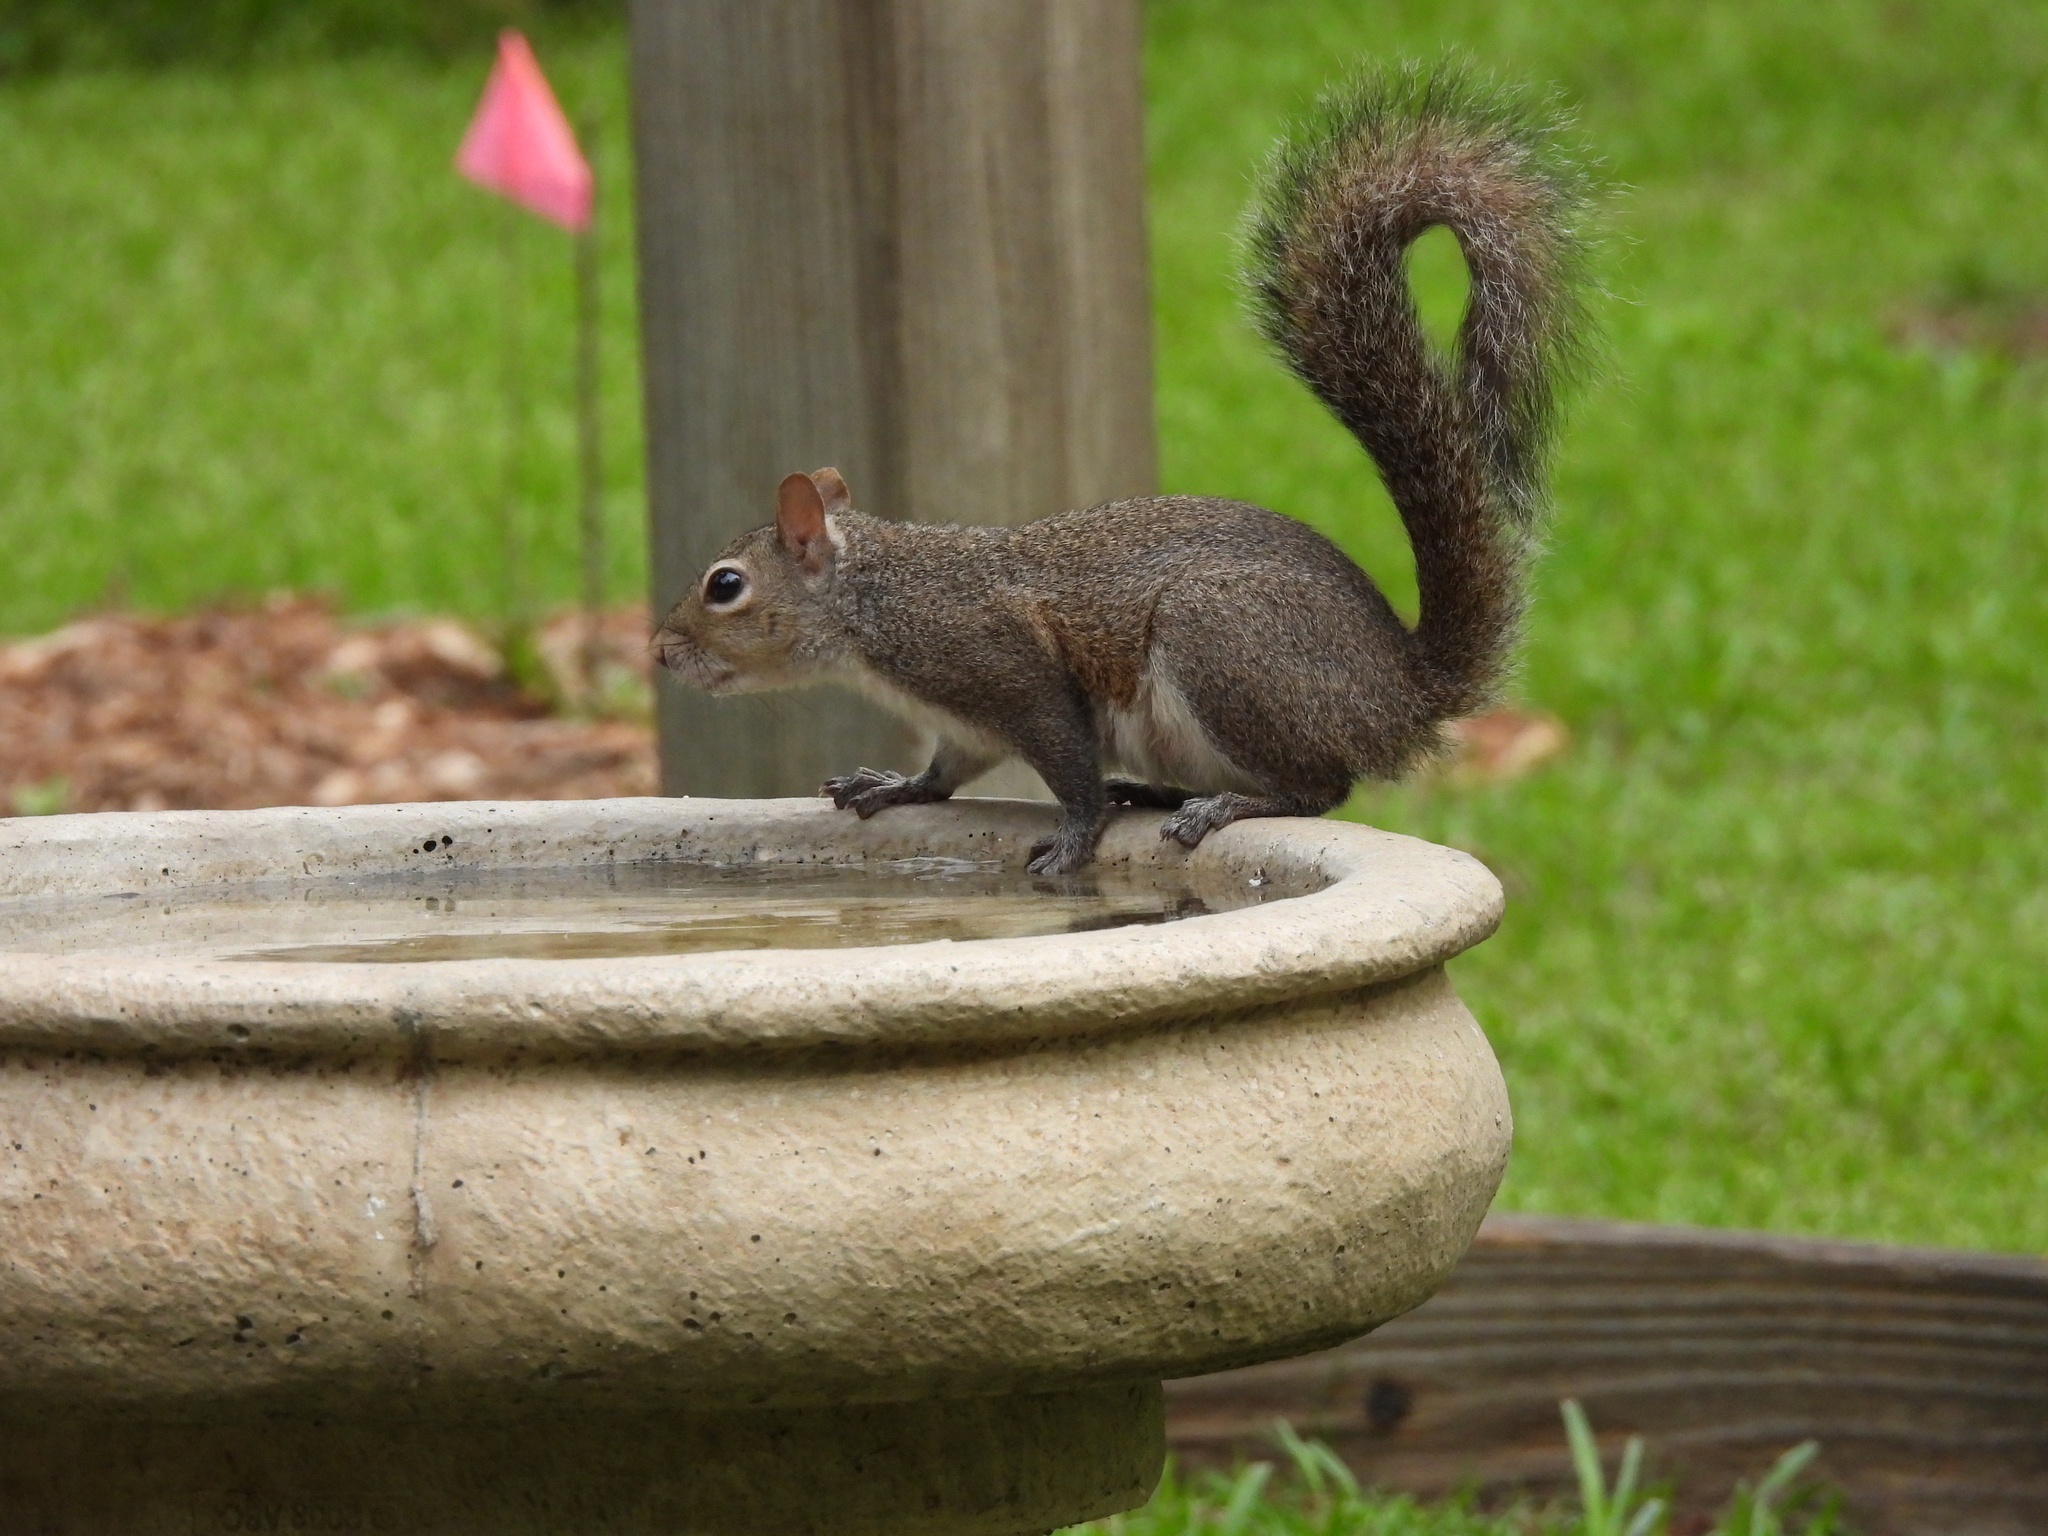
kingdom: Animalia
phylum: Chordata
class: Mammalia
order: Rodentia
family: Sciuridae
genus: Sciurus
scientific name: Sciurus carolinensis
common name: Eastern gray squirrel
